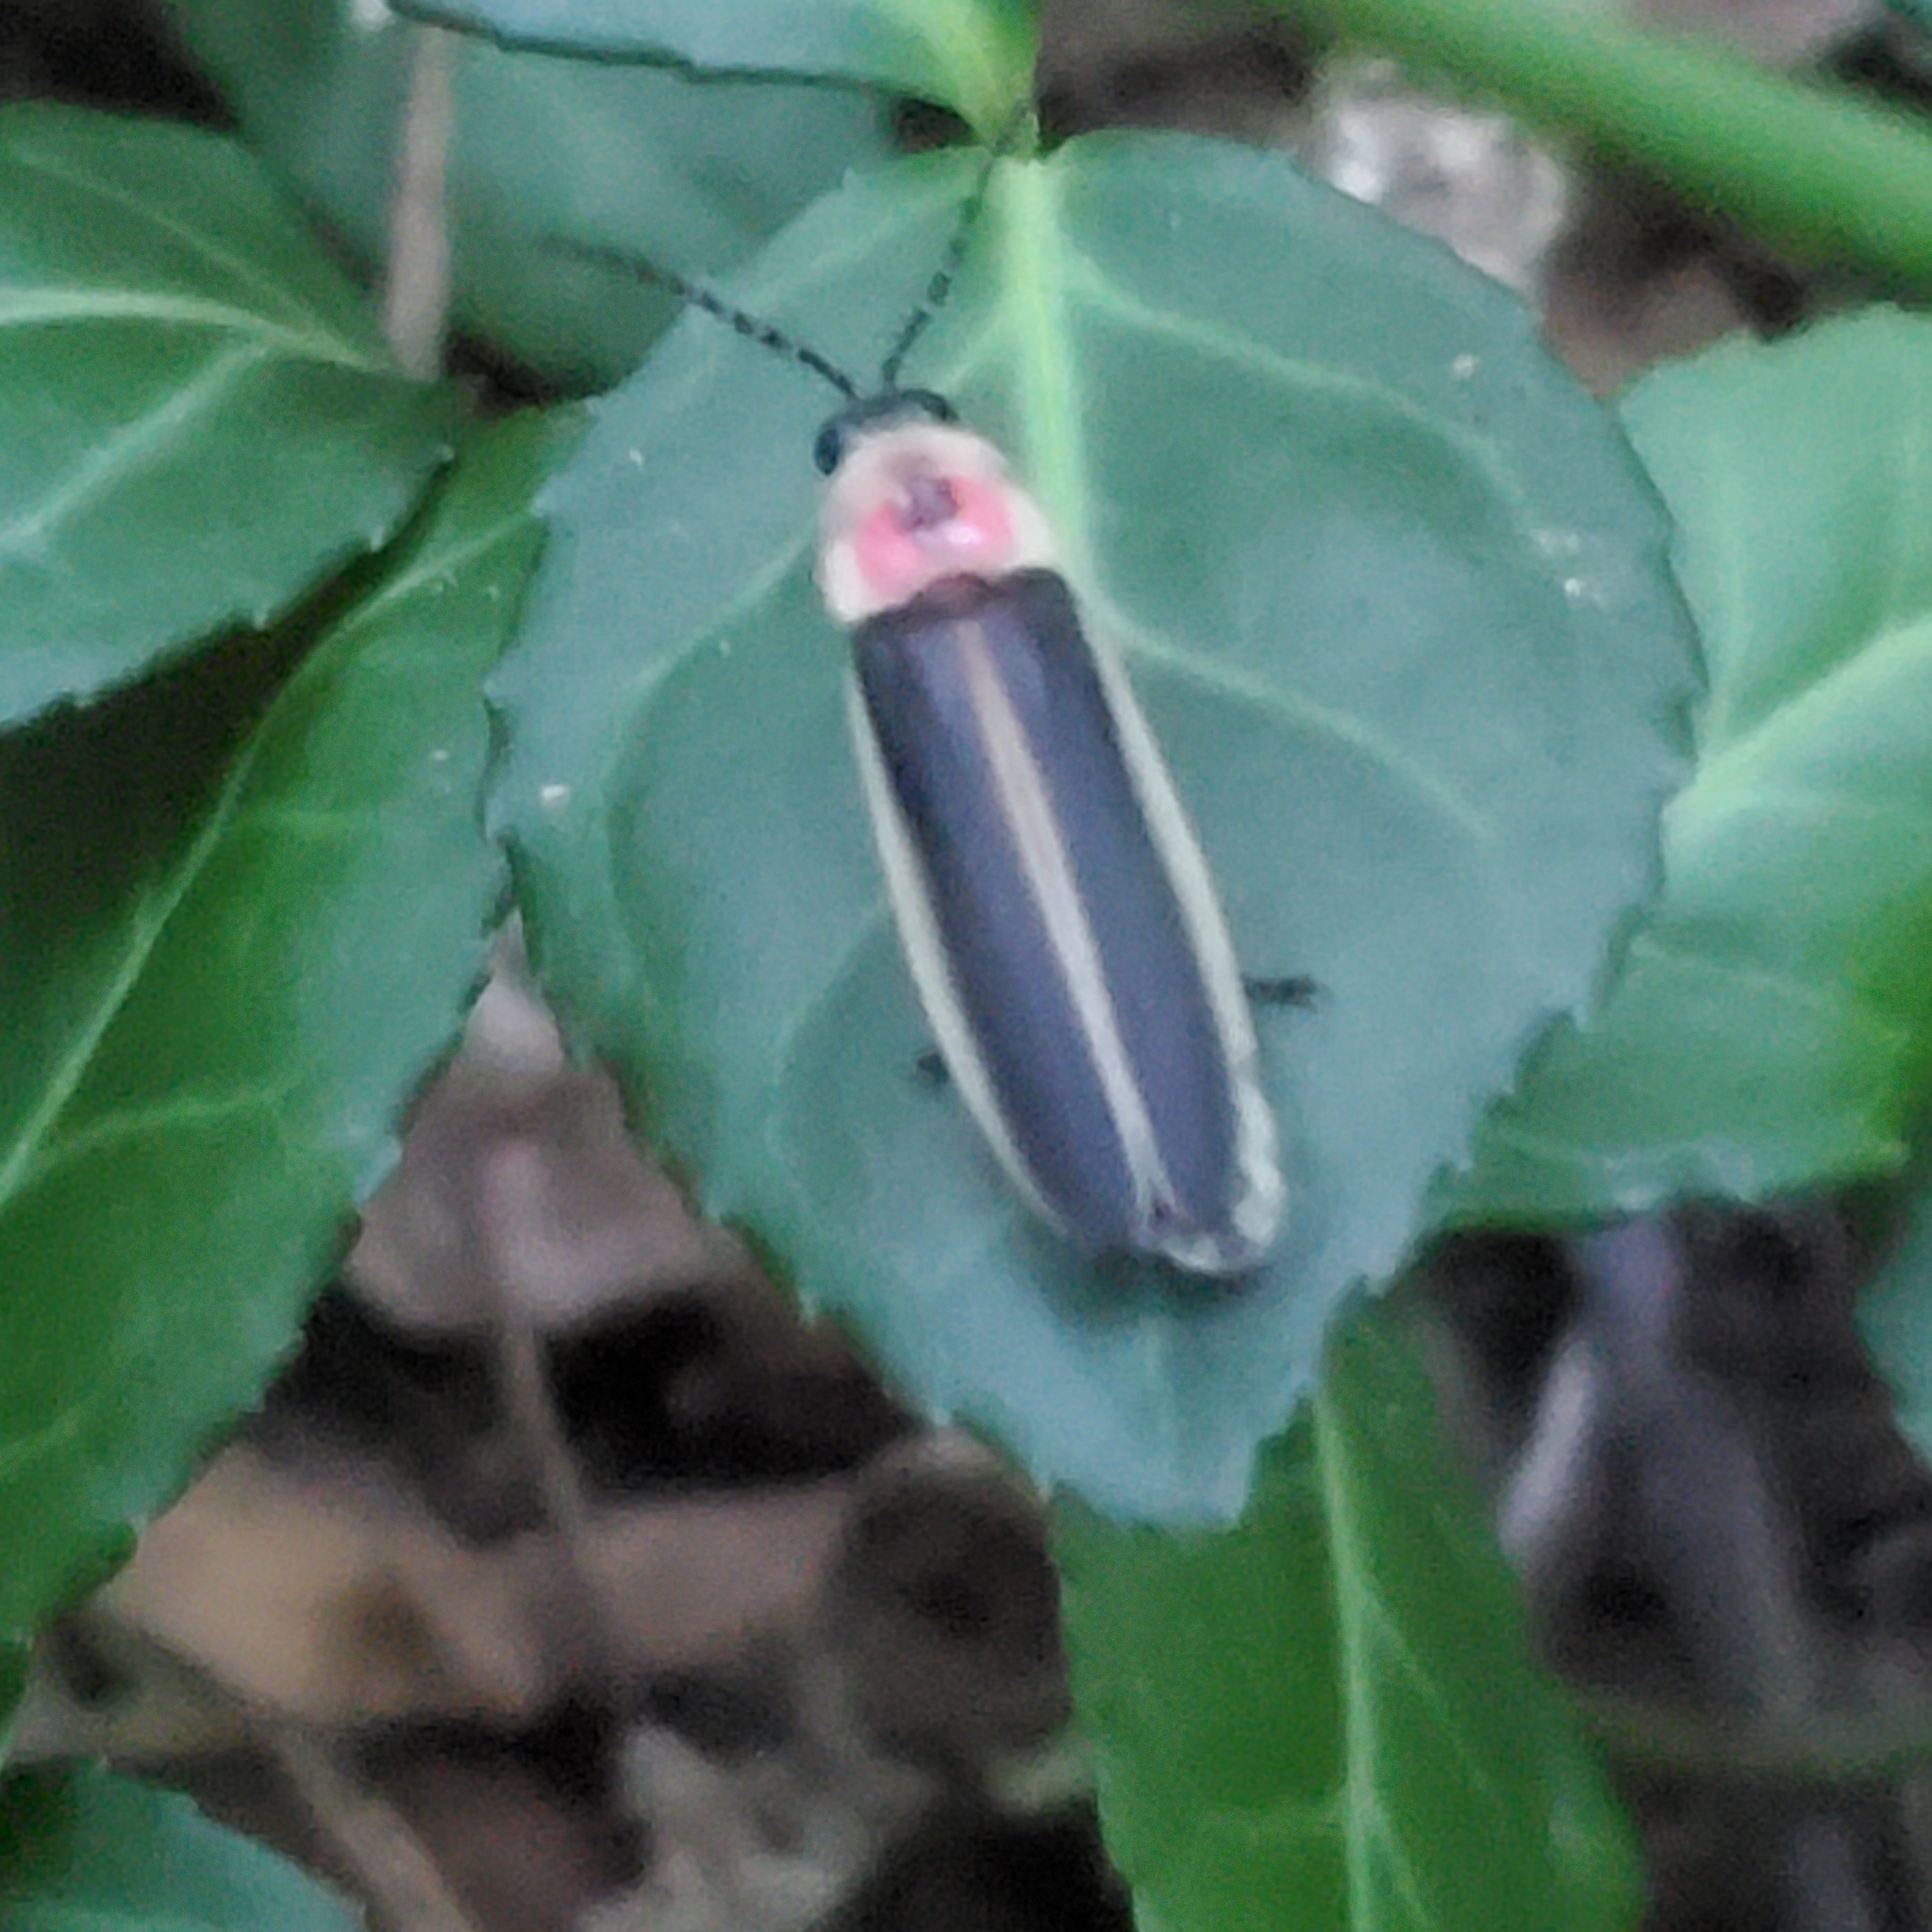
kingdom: Animalia
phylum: Arthropoda
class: Insecta
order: Coleoptera
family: Lampyridae
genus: Photinus
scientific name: Photinus pyralis
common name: Big dipper firefly
